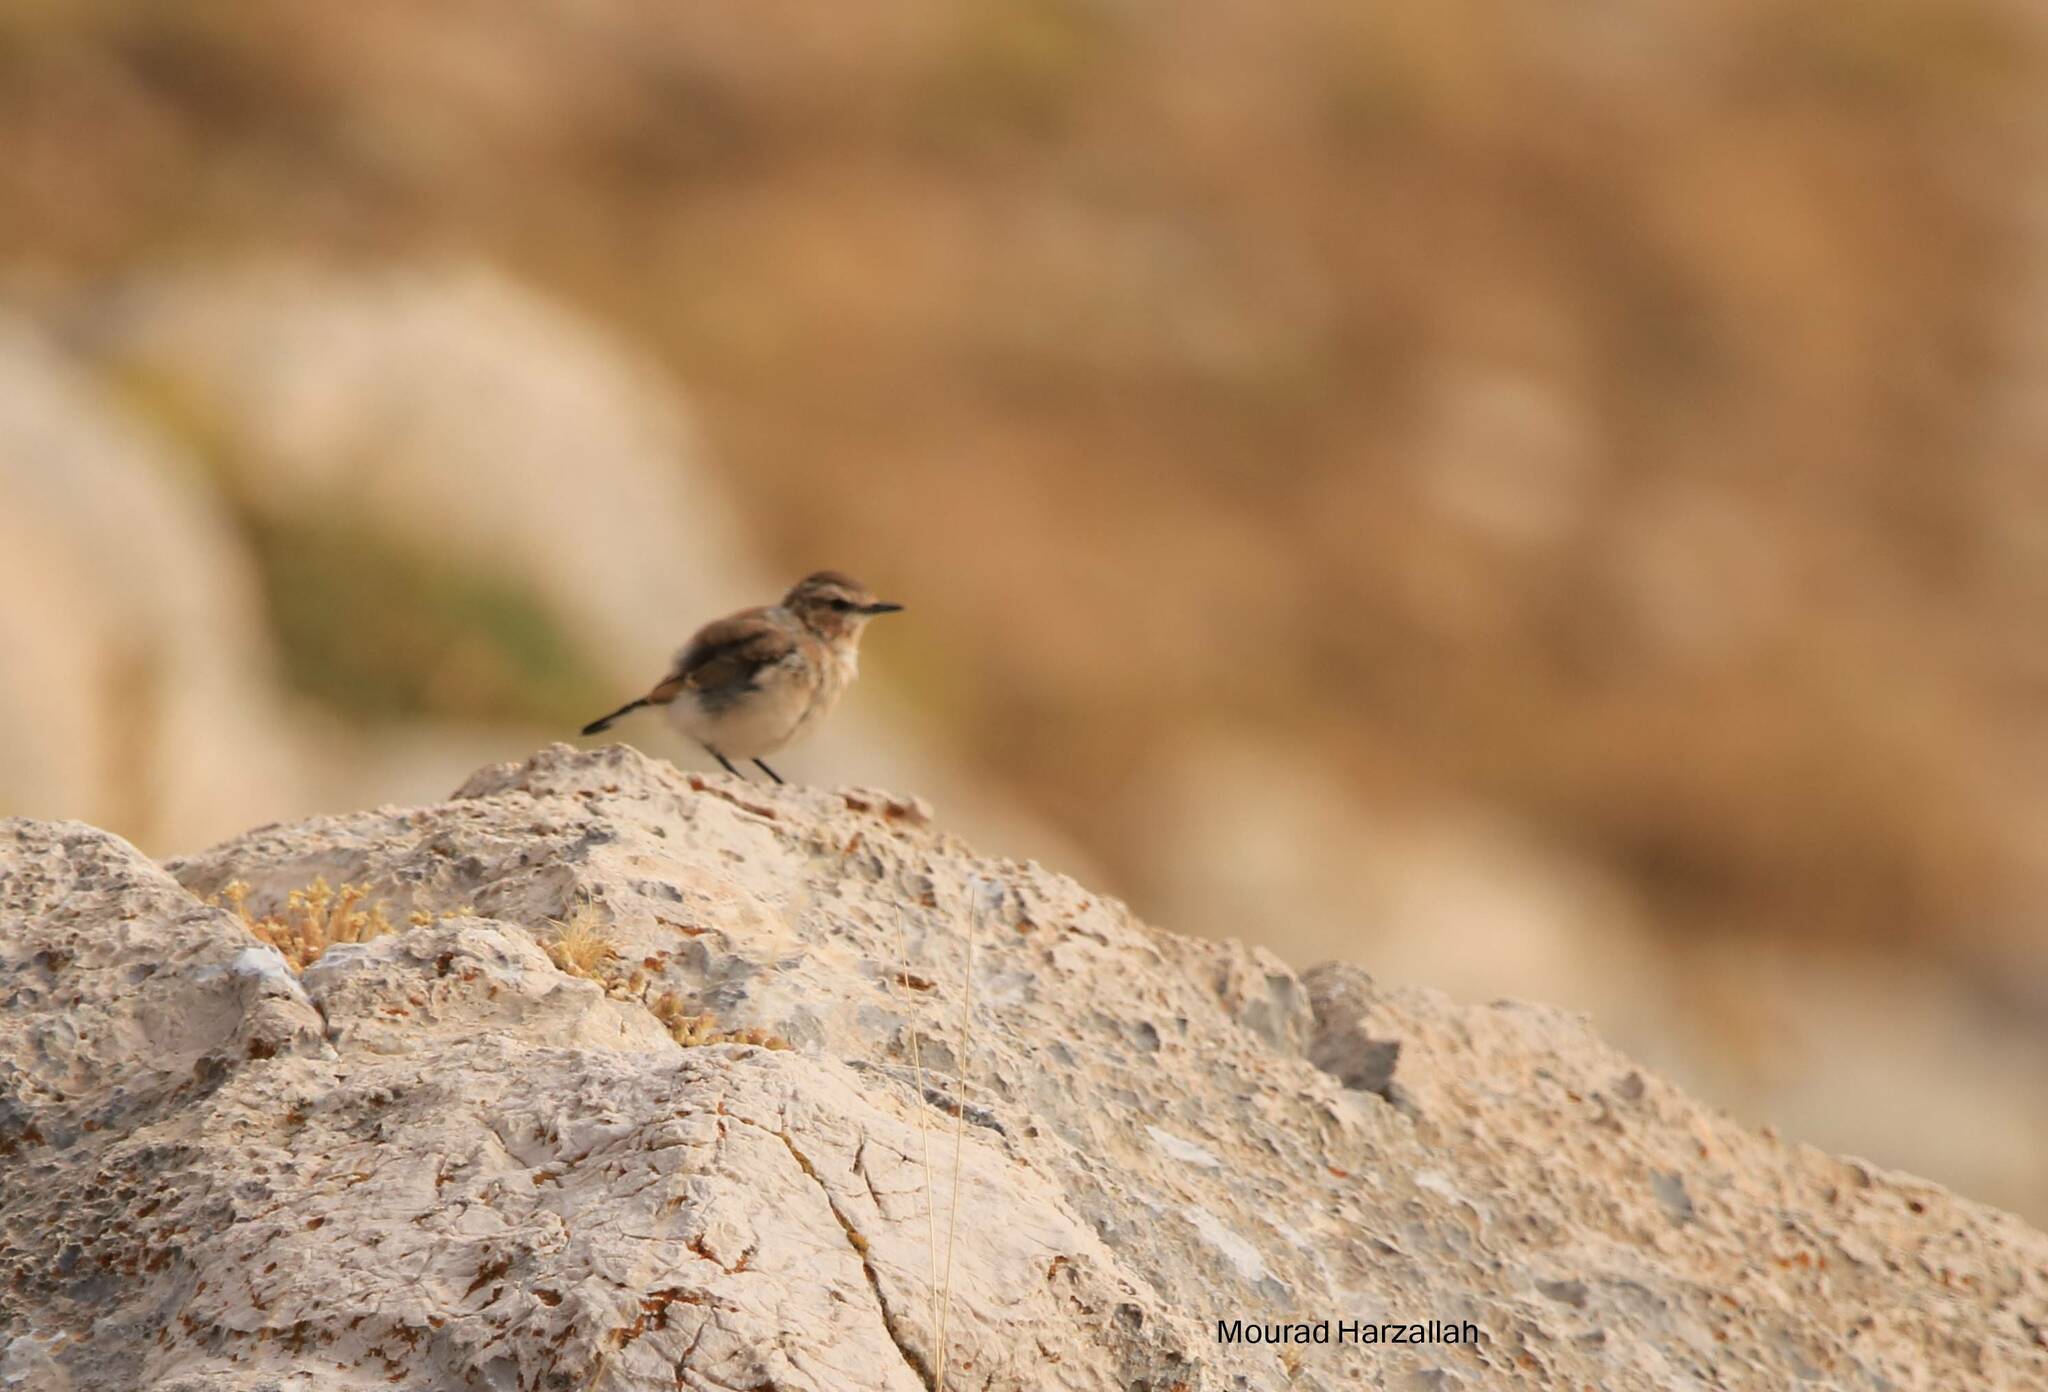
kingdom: Animalia
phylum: Chordata
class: Aves
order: Passeriformes
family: Muscicapidae
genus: Oenanthe
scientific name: Oenanthe oenanthe
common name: Northern wheatear
